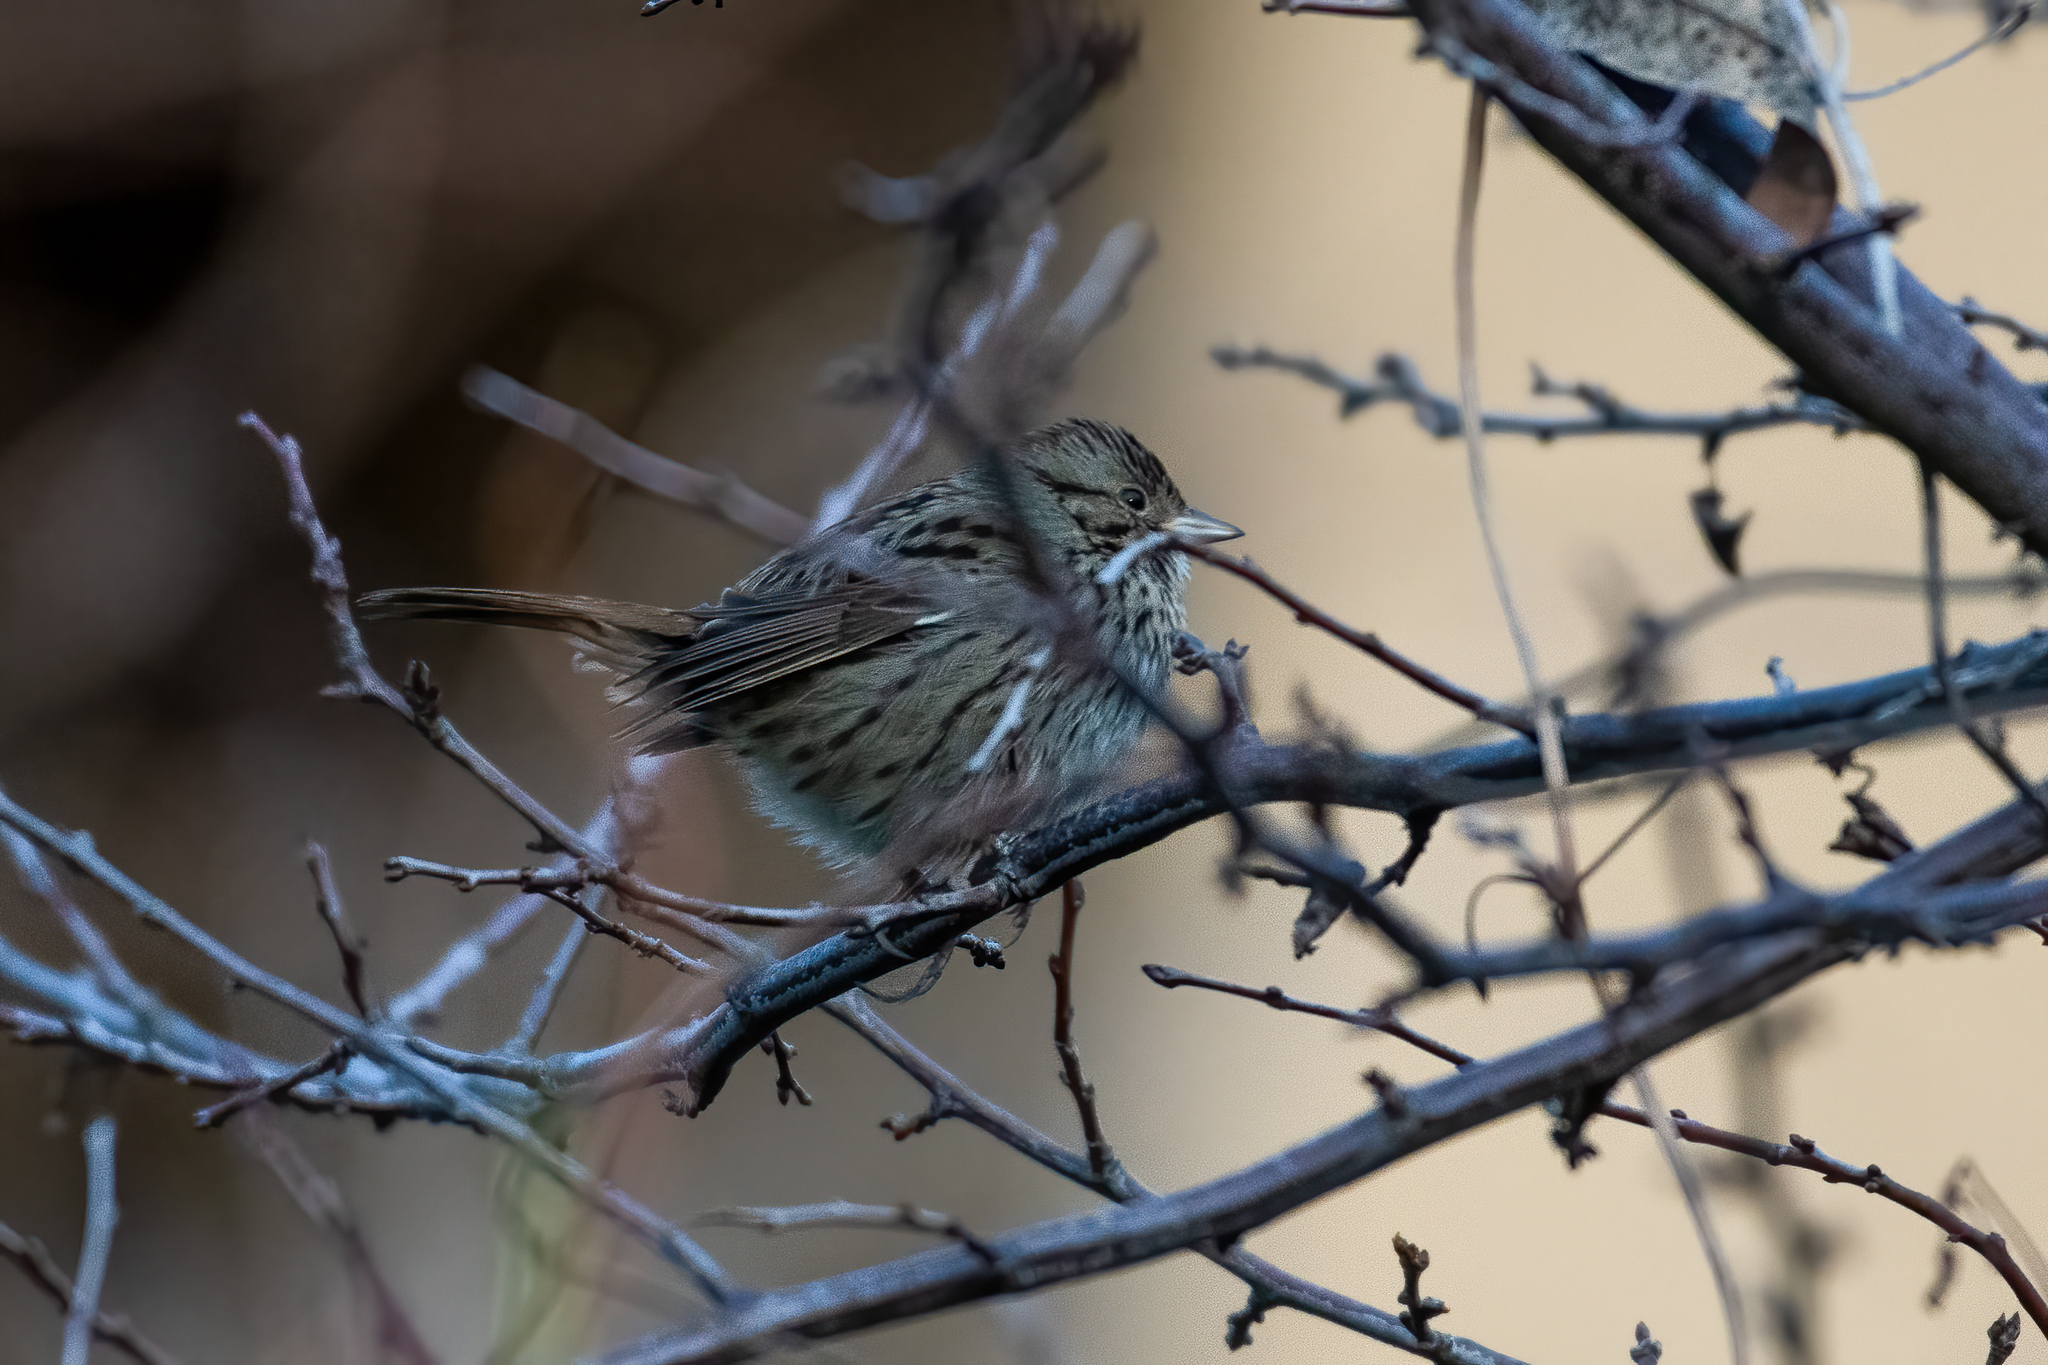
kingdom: Animalia
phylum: Chordata
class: Aves
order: Passeriformes
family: Passerellidae
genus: Melospiza
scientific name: Melospiza lincolnii
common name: Lincoln's sparrow
